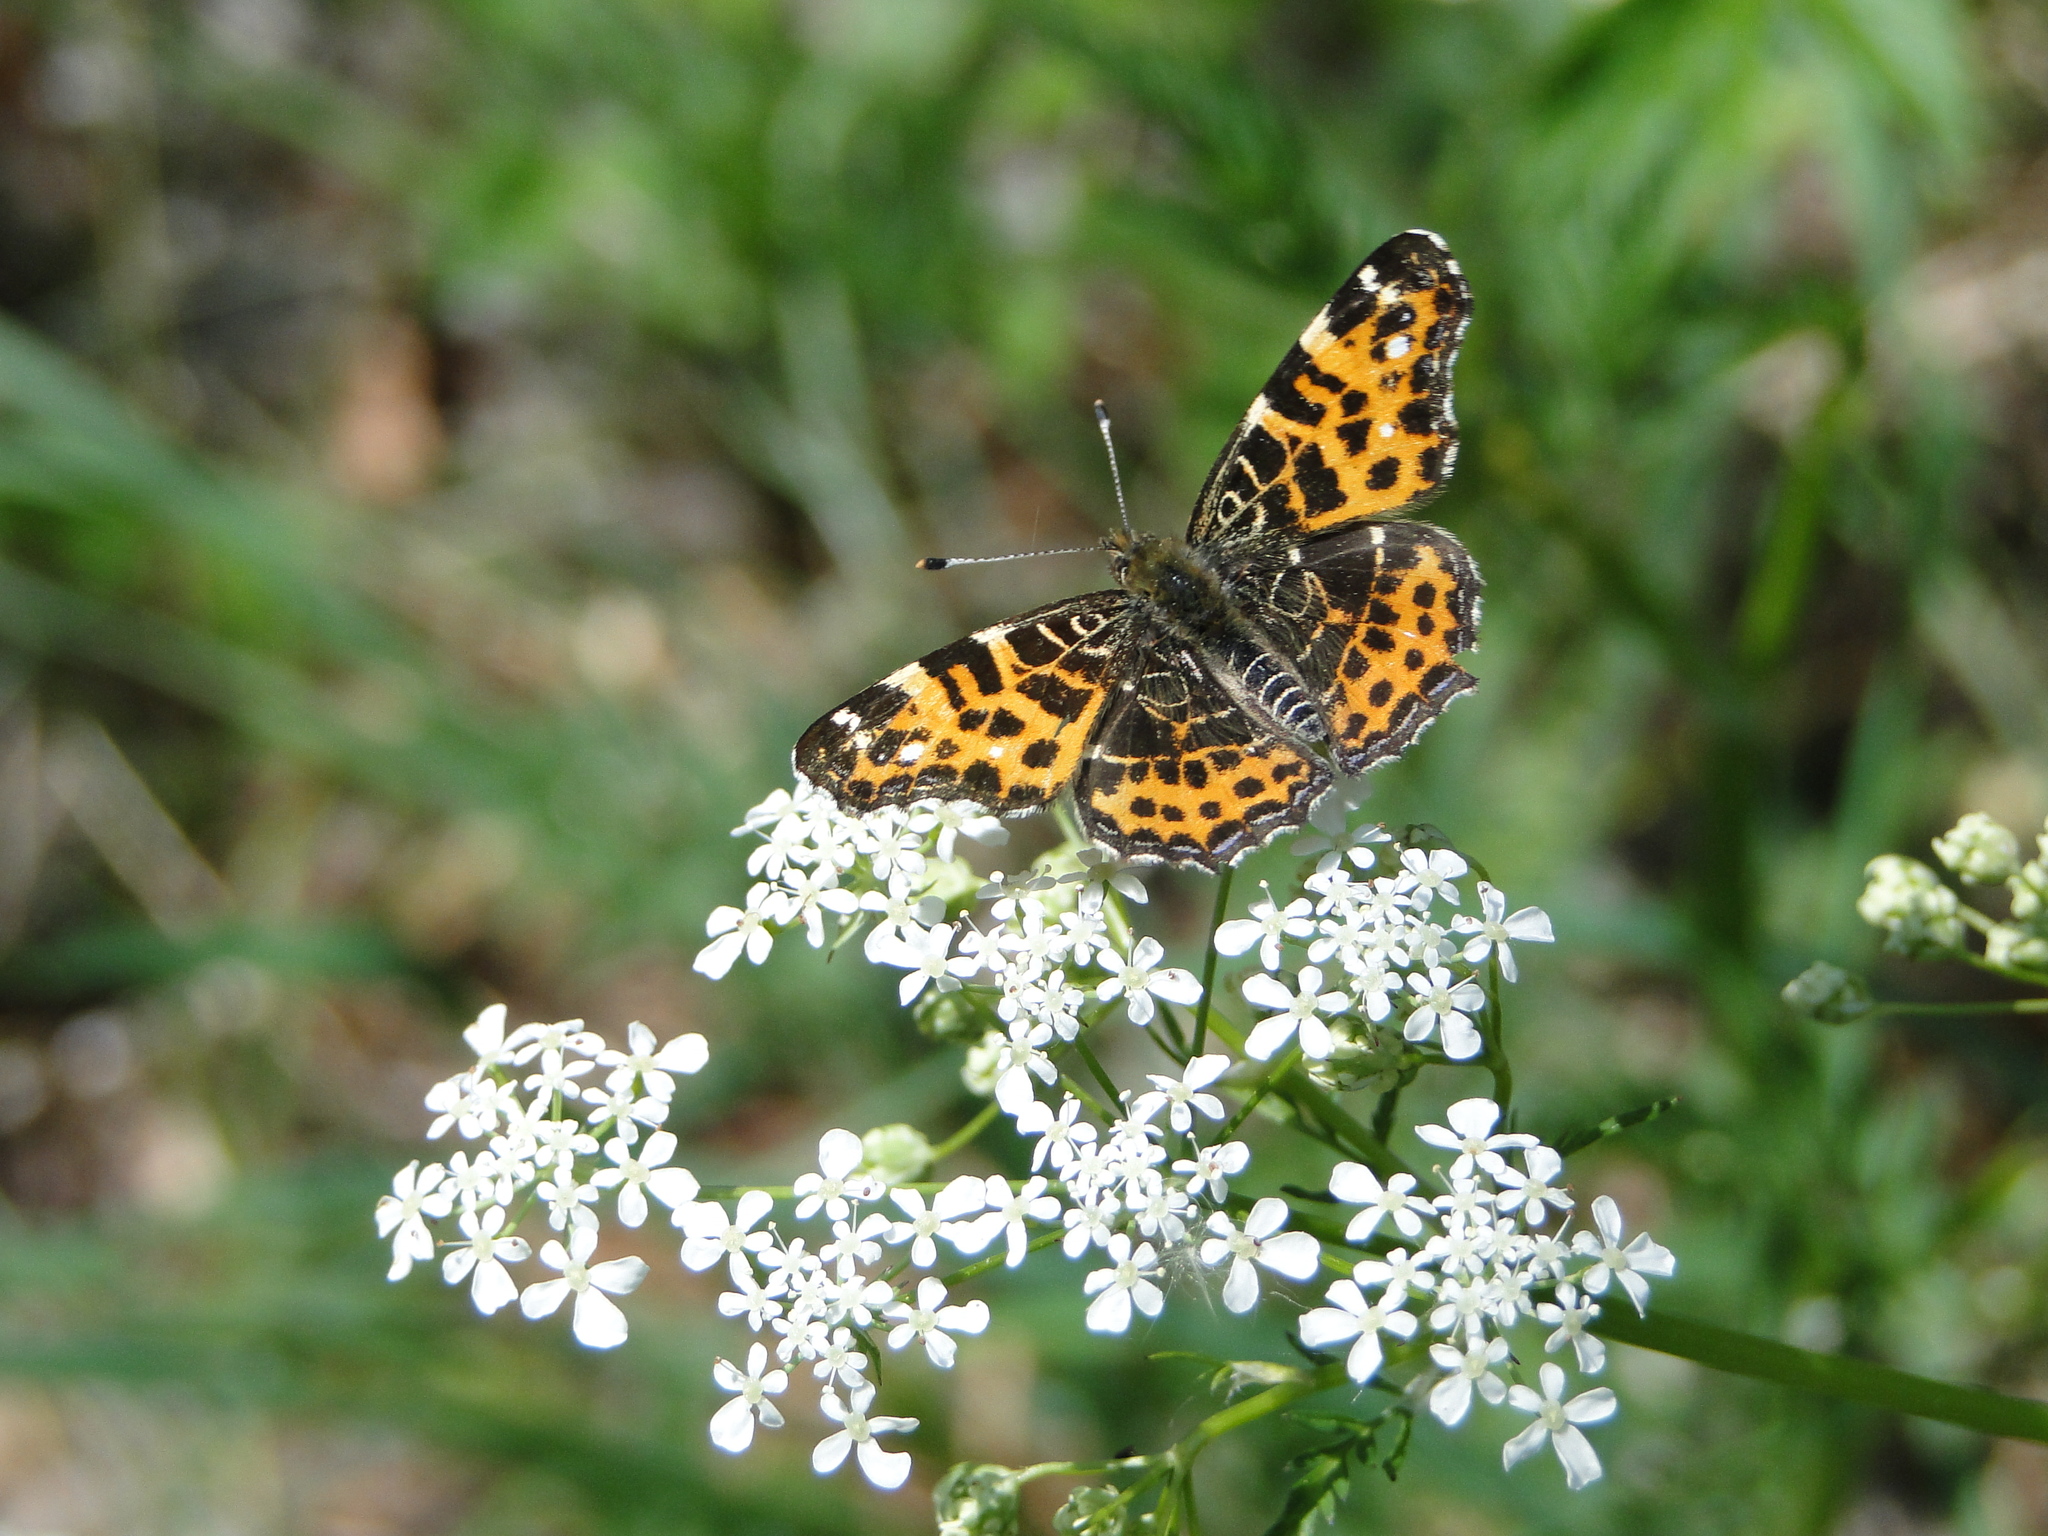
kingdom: Animalia
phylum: Arthropoda
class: Insecta
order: Lepidoptera
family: Nymphalidae
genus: Araschnia
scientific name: Araschnia levana
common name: Map butterfly
